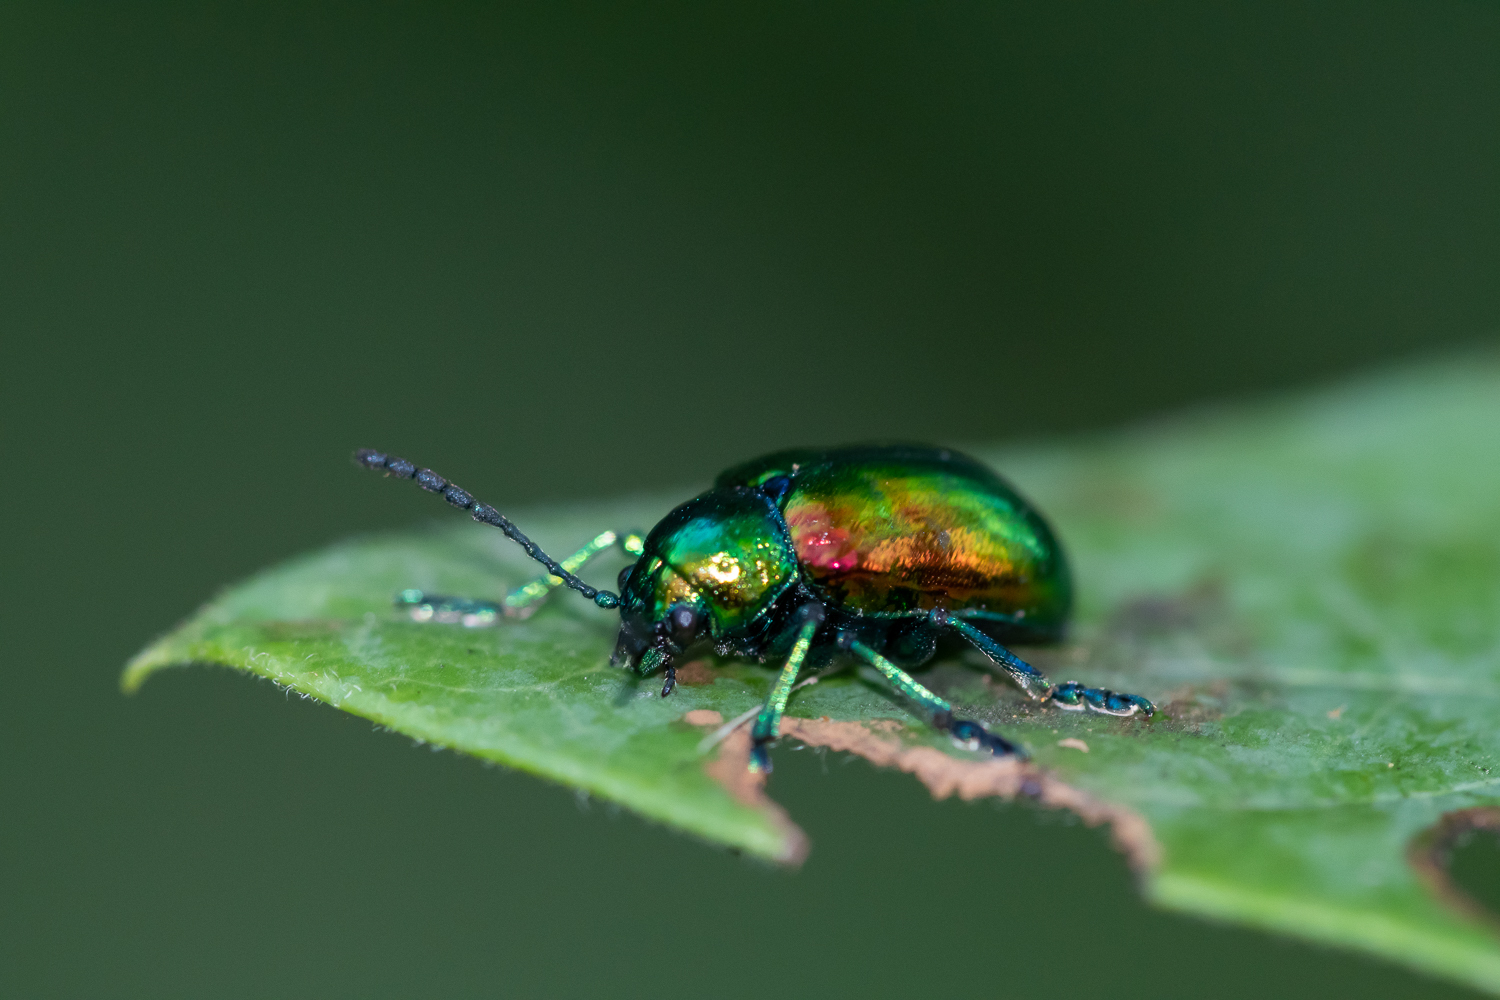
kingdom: Animalia
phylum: Arthropoda
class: Insecta
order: Coleoptera
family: Chrysomelidae
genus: Chrysochus
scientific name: Chrysochus auratus
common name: Dogbane leaf beetle
